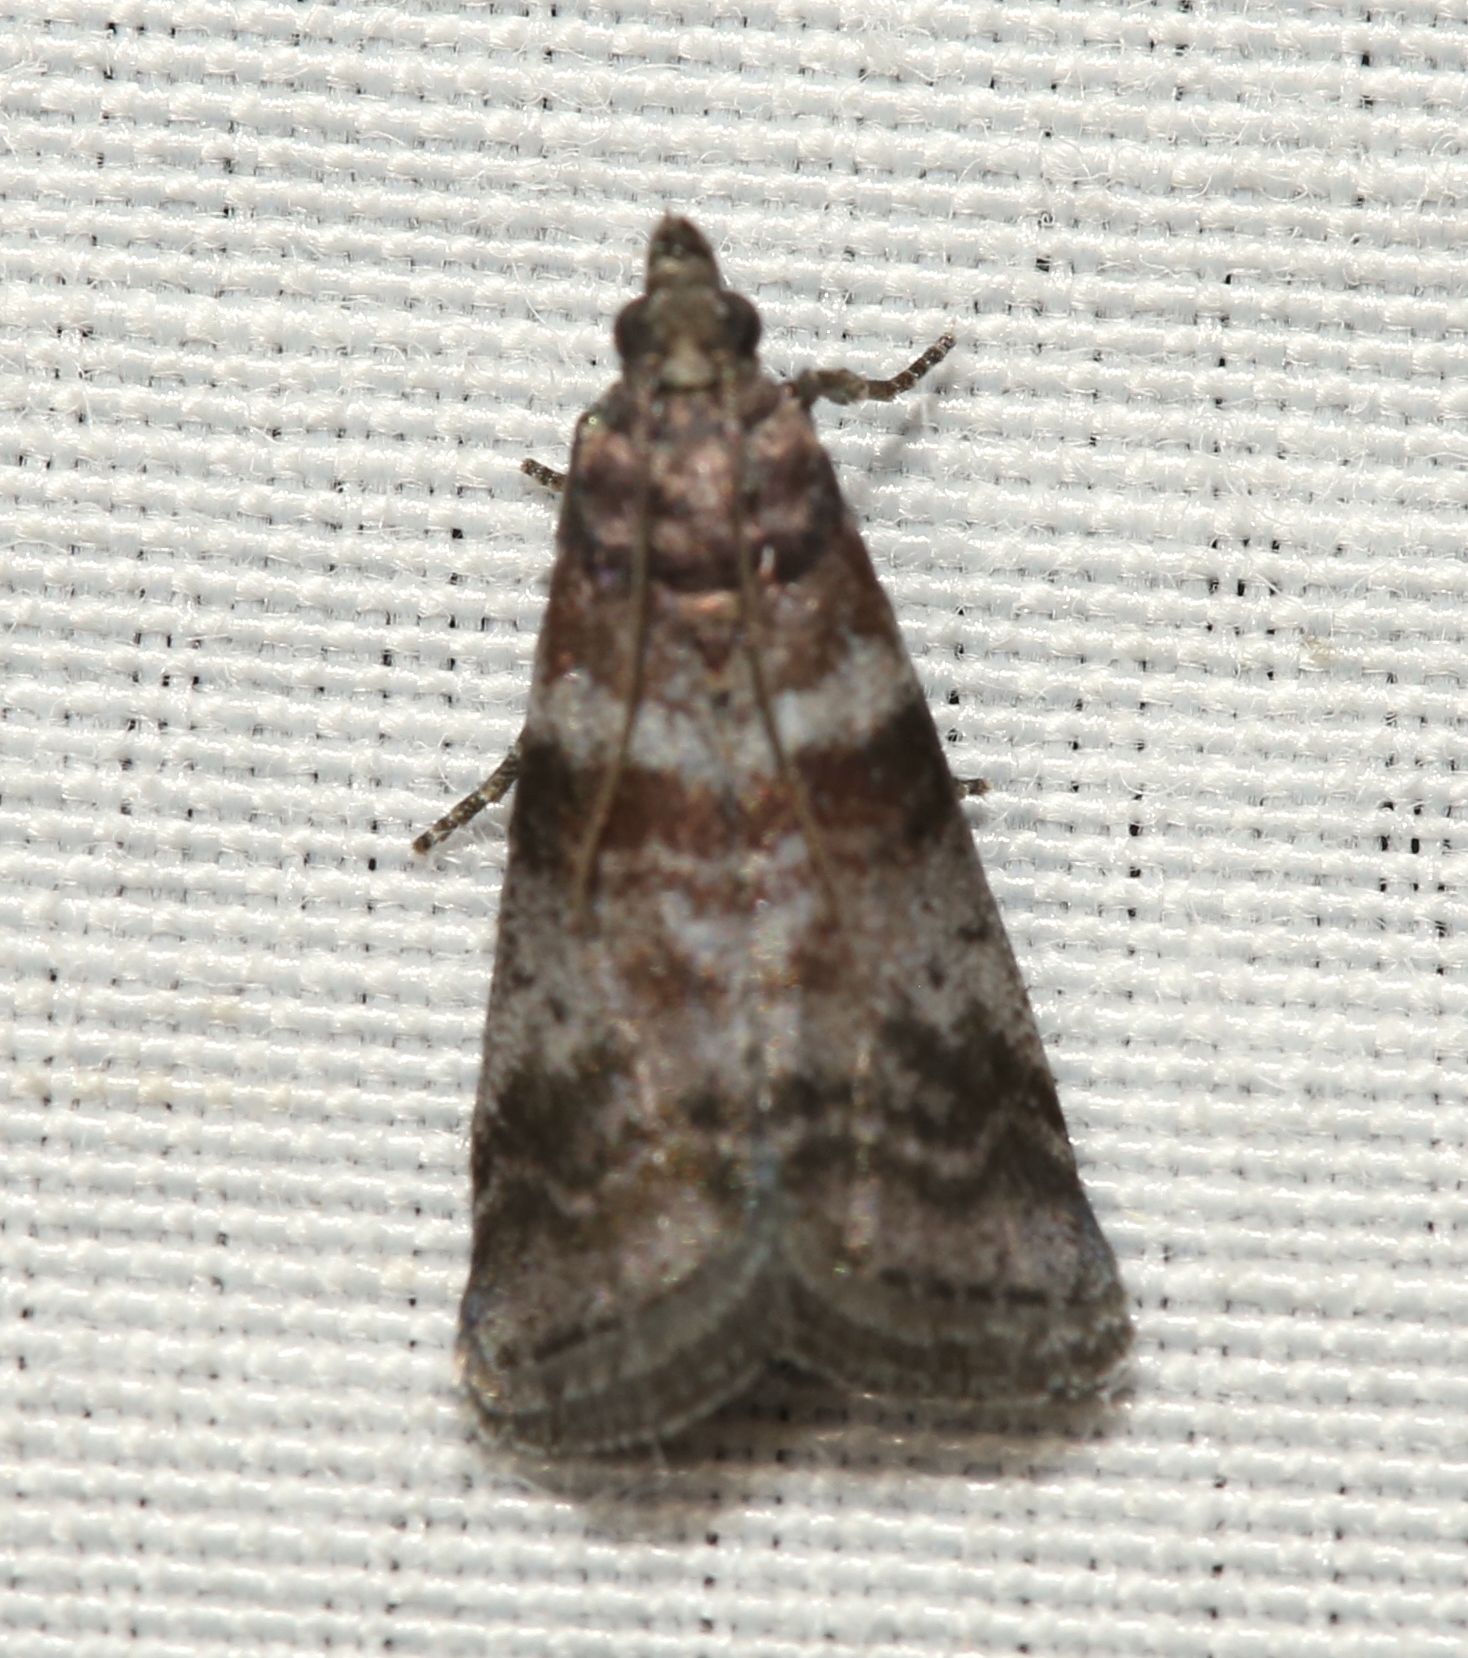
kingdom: Animalia
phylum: Arthropoda
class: Insecta
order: Lepidoptera
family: Pyralidae
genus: Sciota
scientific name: Sciota uvinella
